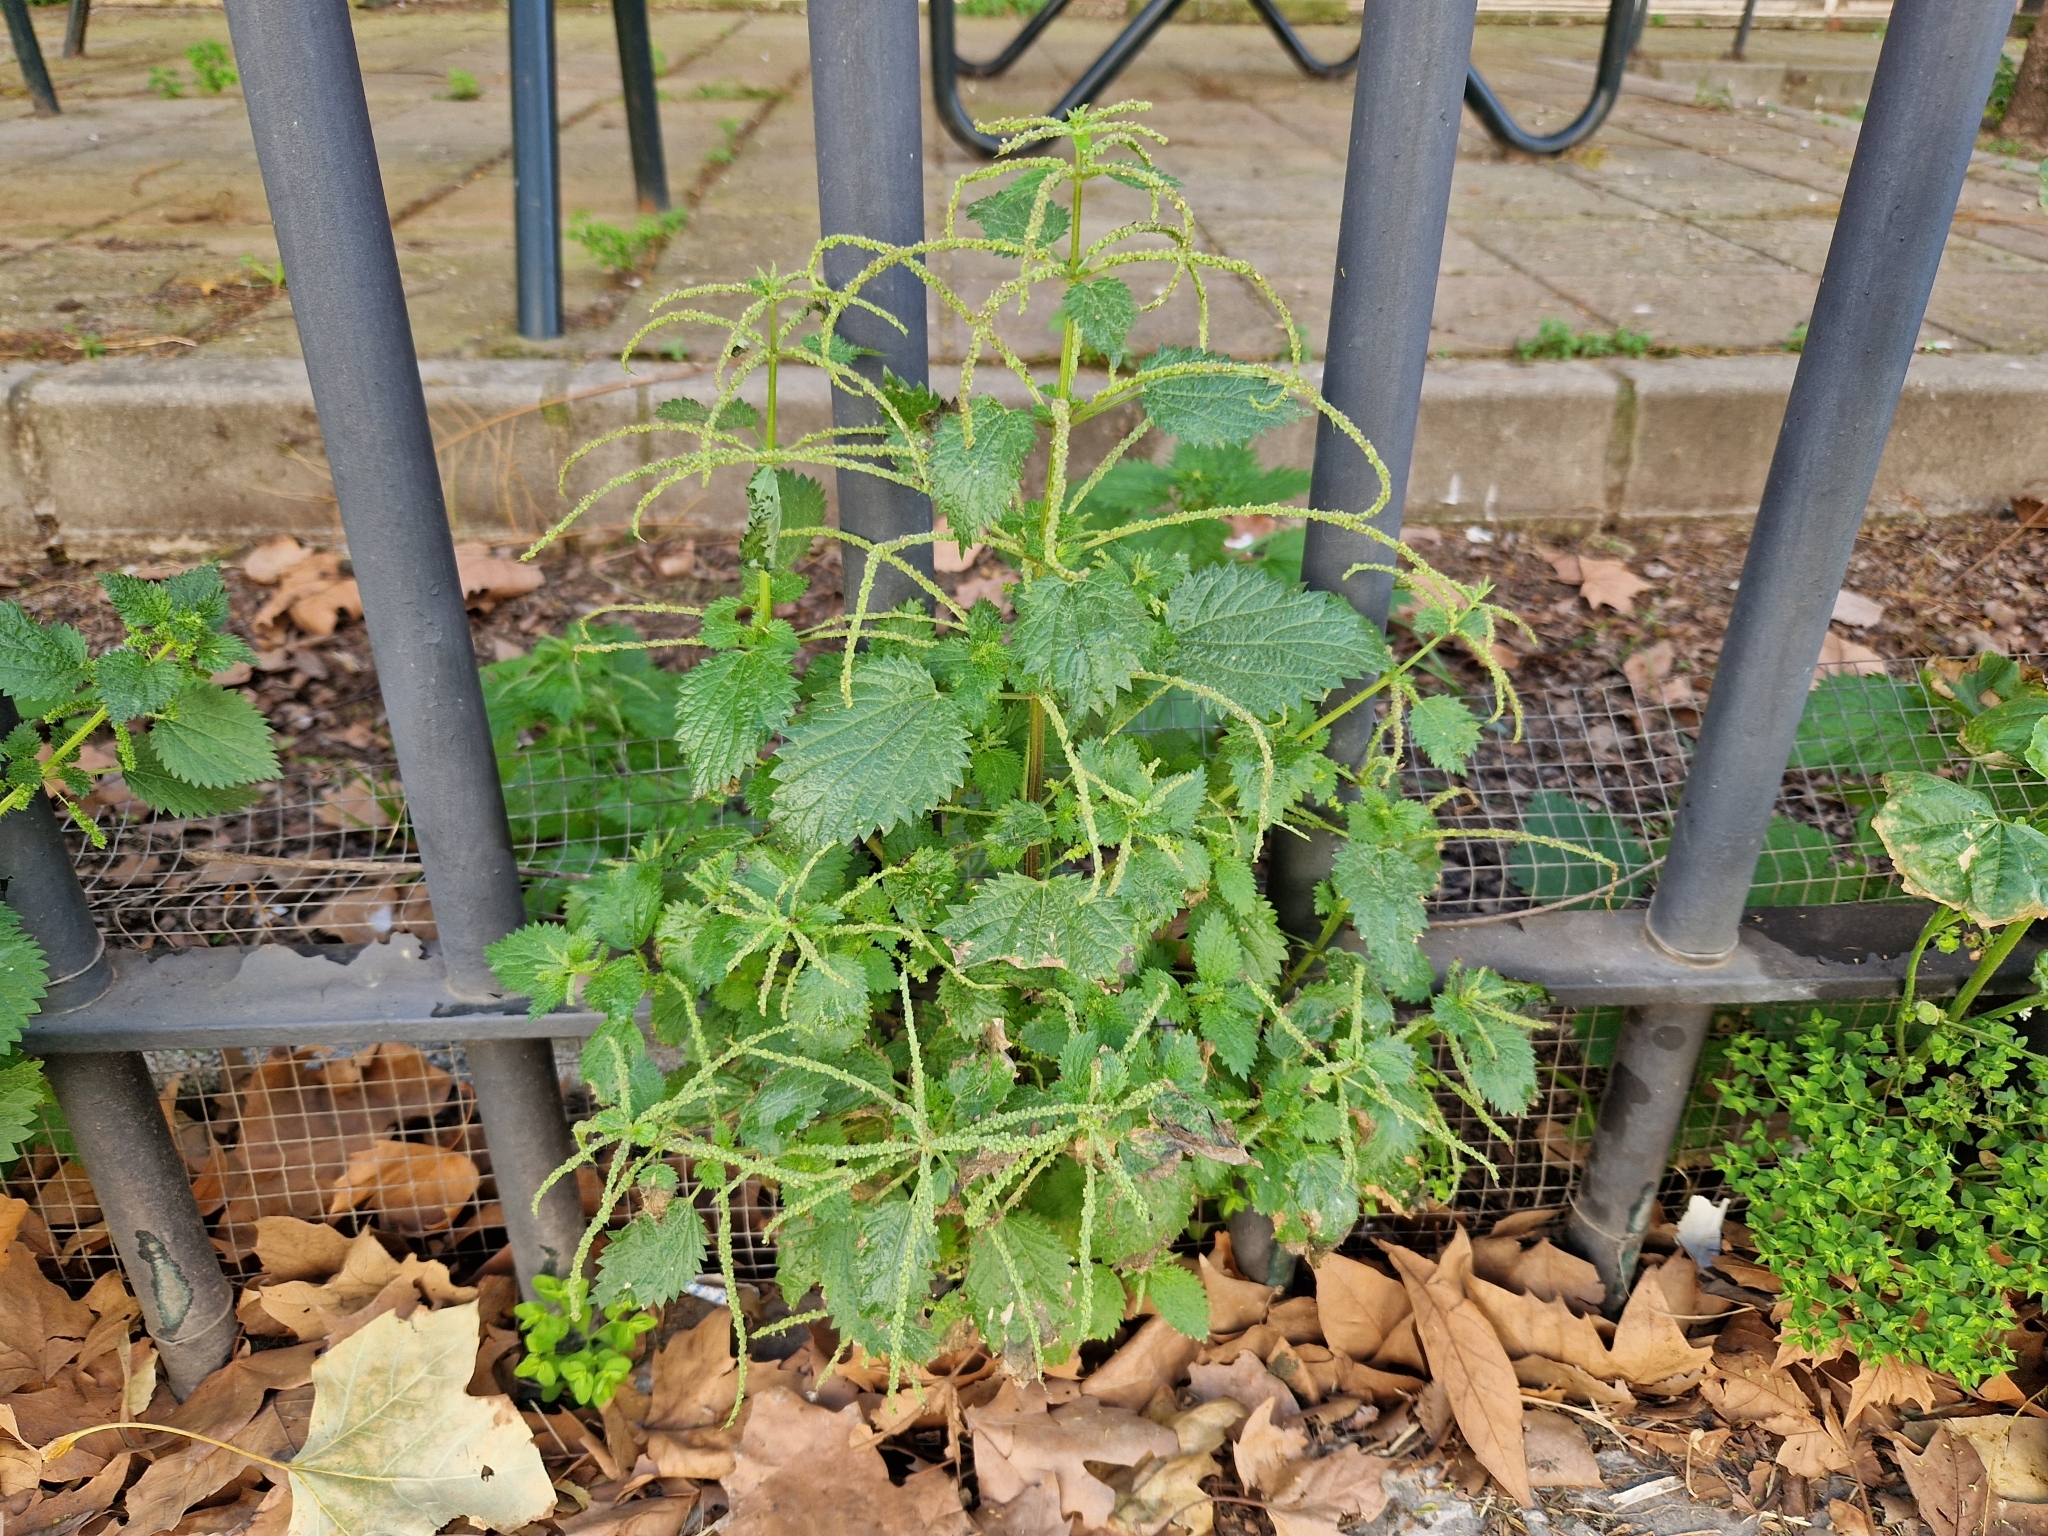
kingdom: Plantae
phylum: Tracheophyta
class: Magnoliopsida
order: Rosales
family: Urticaceae
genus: Urtica
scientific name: Urtica membranacea
